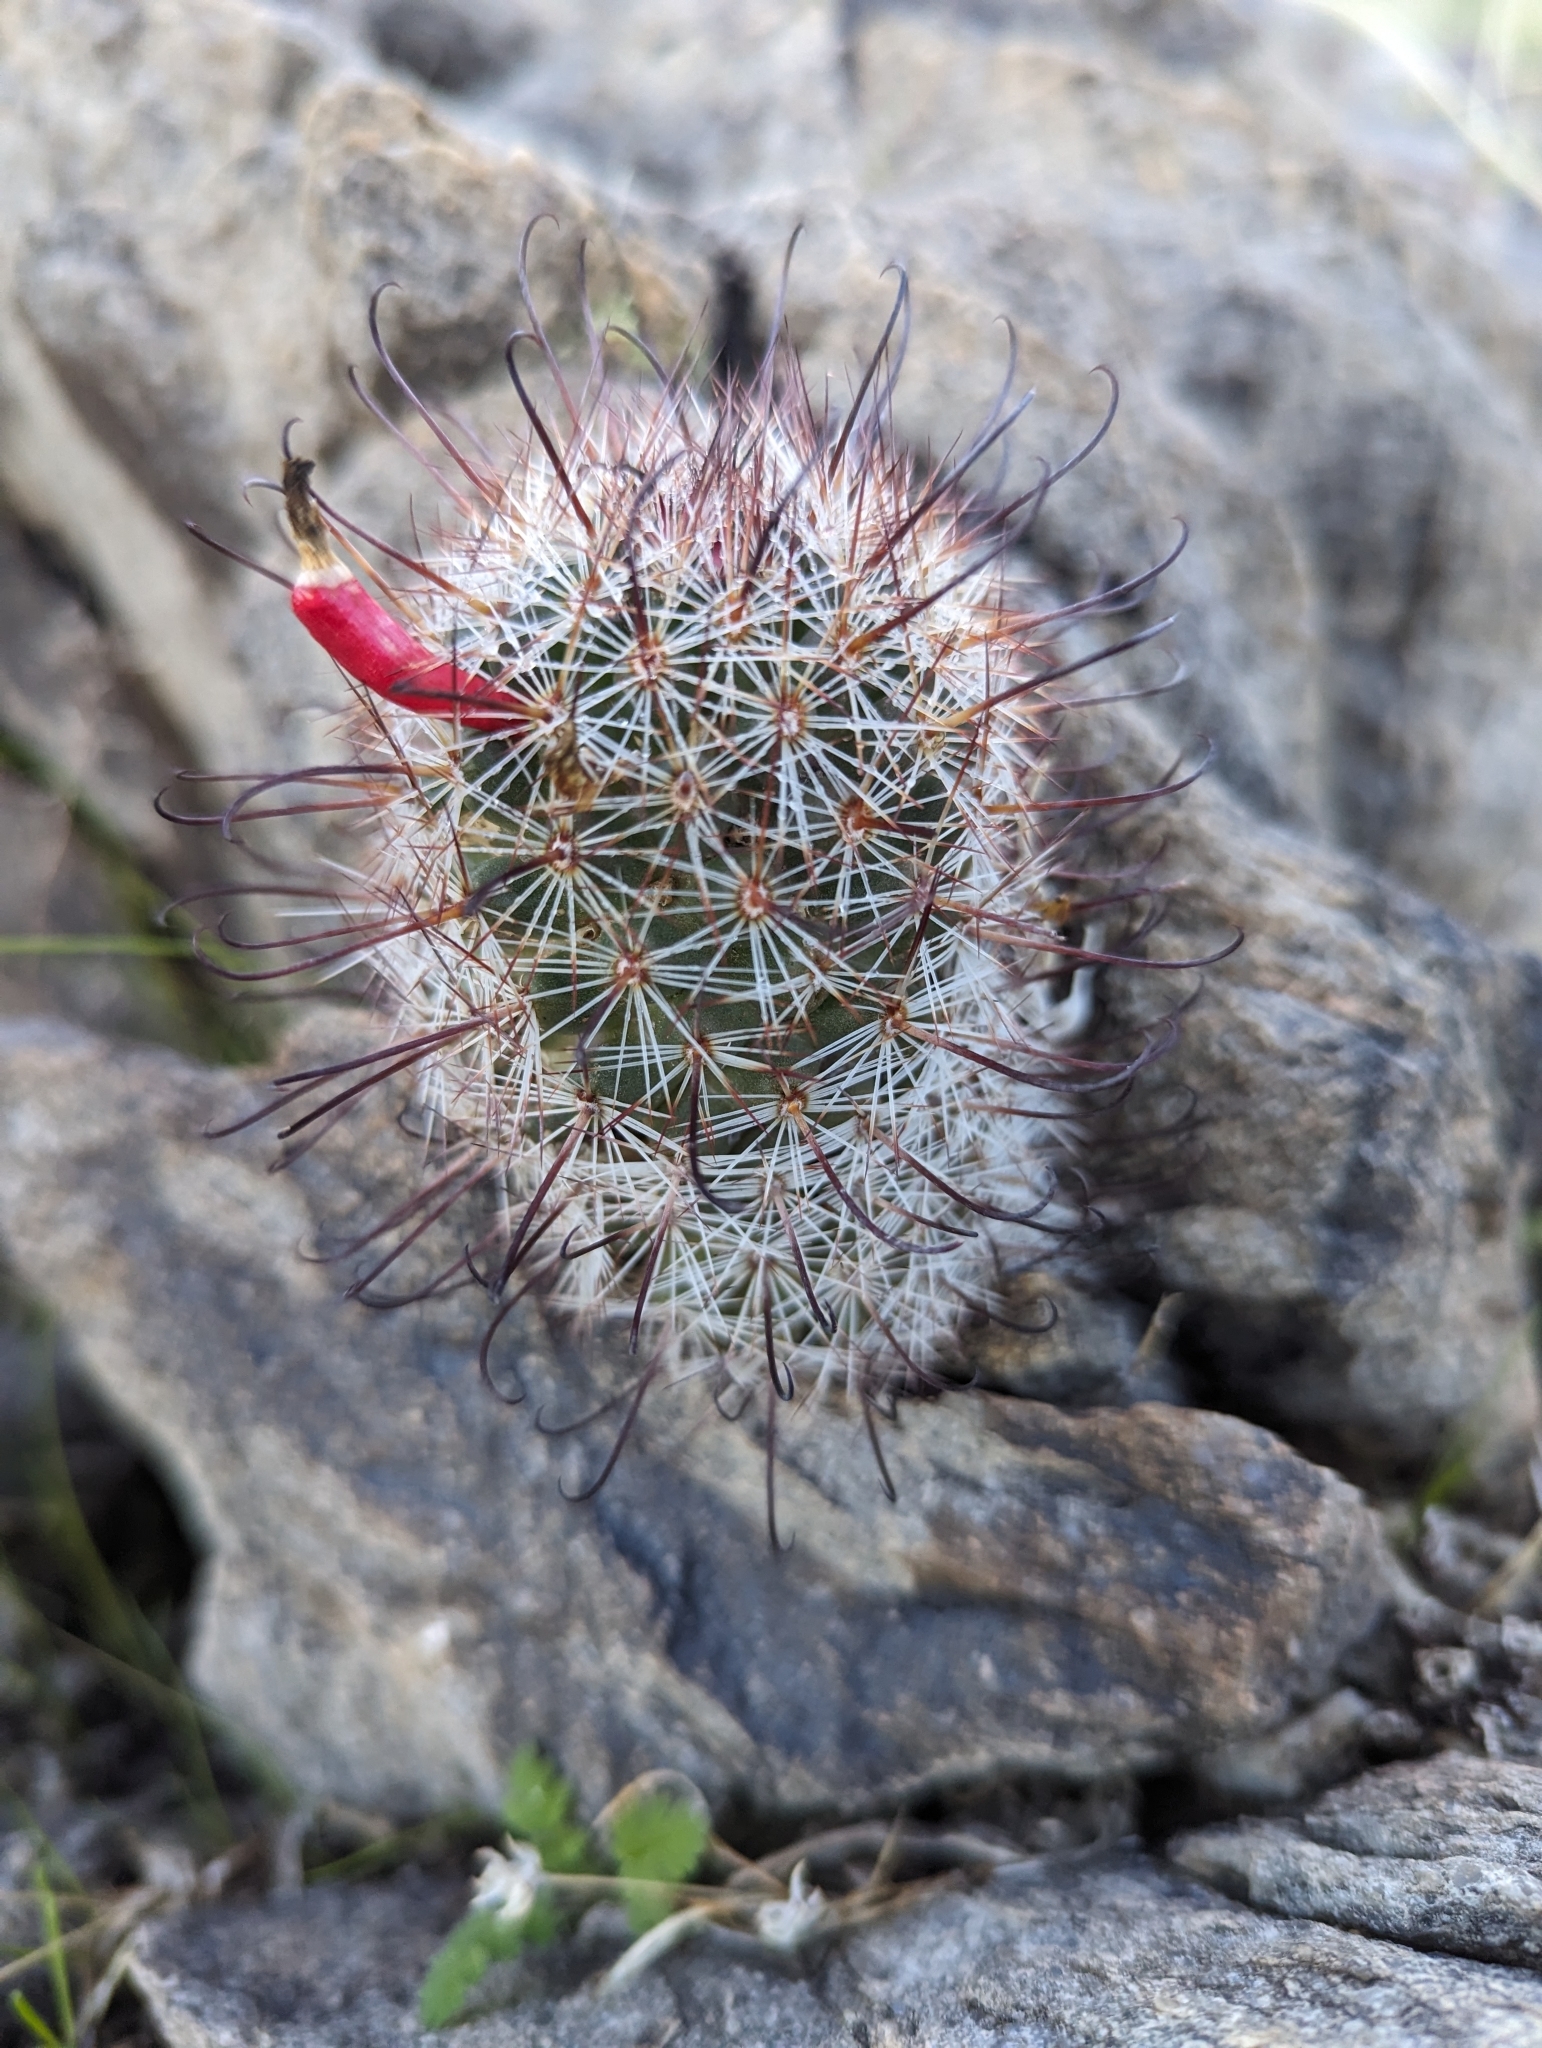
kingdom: Plantae
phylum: Tracheophyta
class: Magnoliopsida
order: Caryophyllales
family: Cactaceae
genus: Cochemiea
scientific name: Cochemiea grahamii
